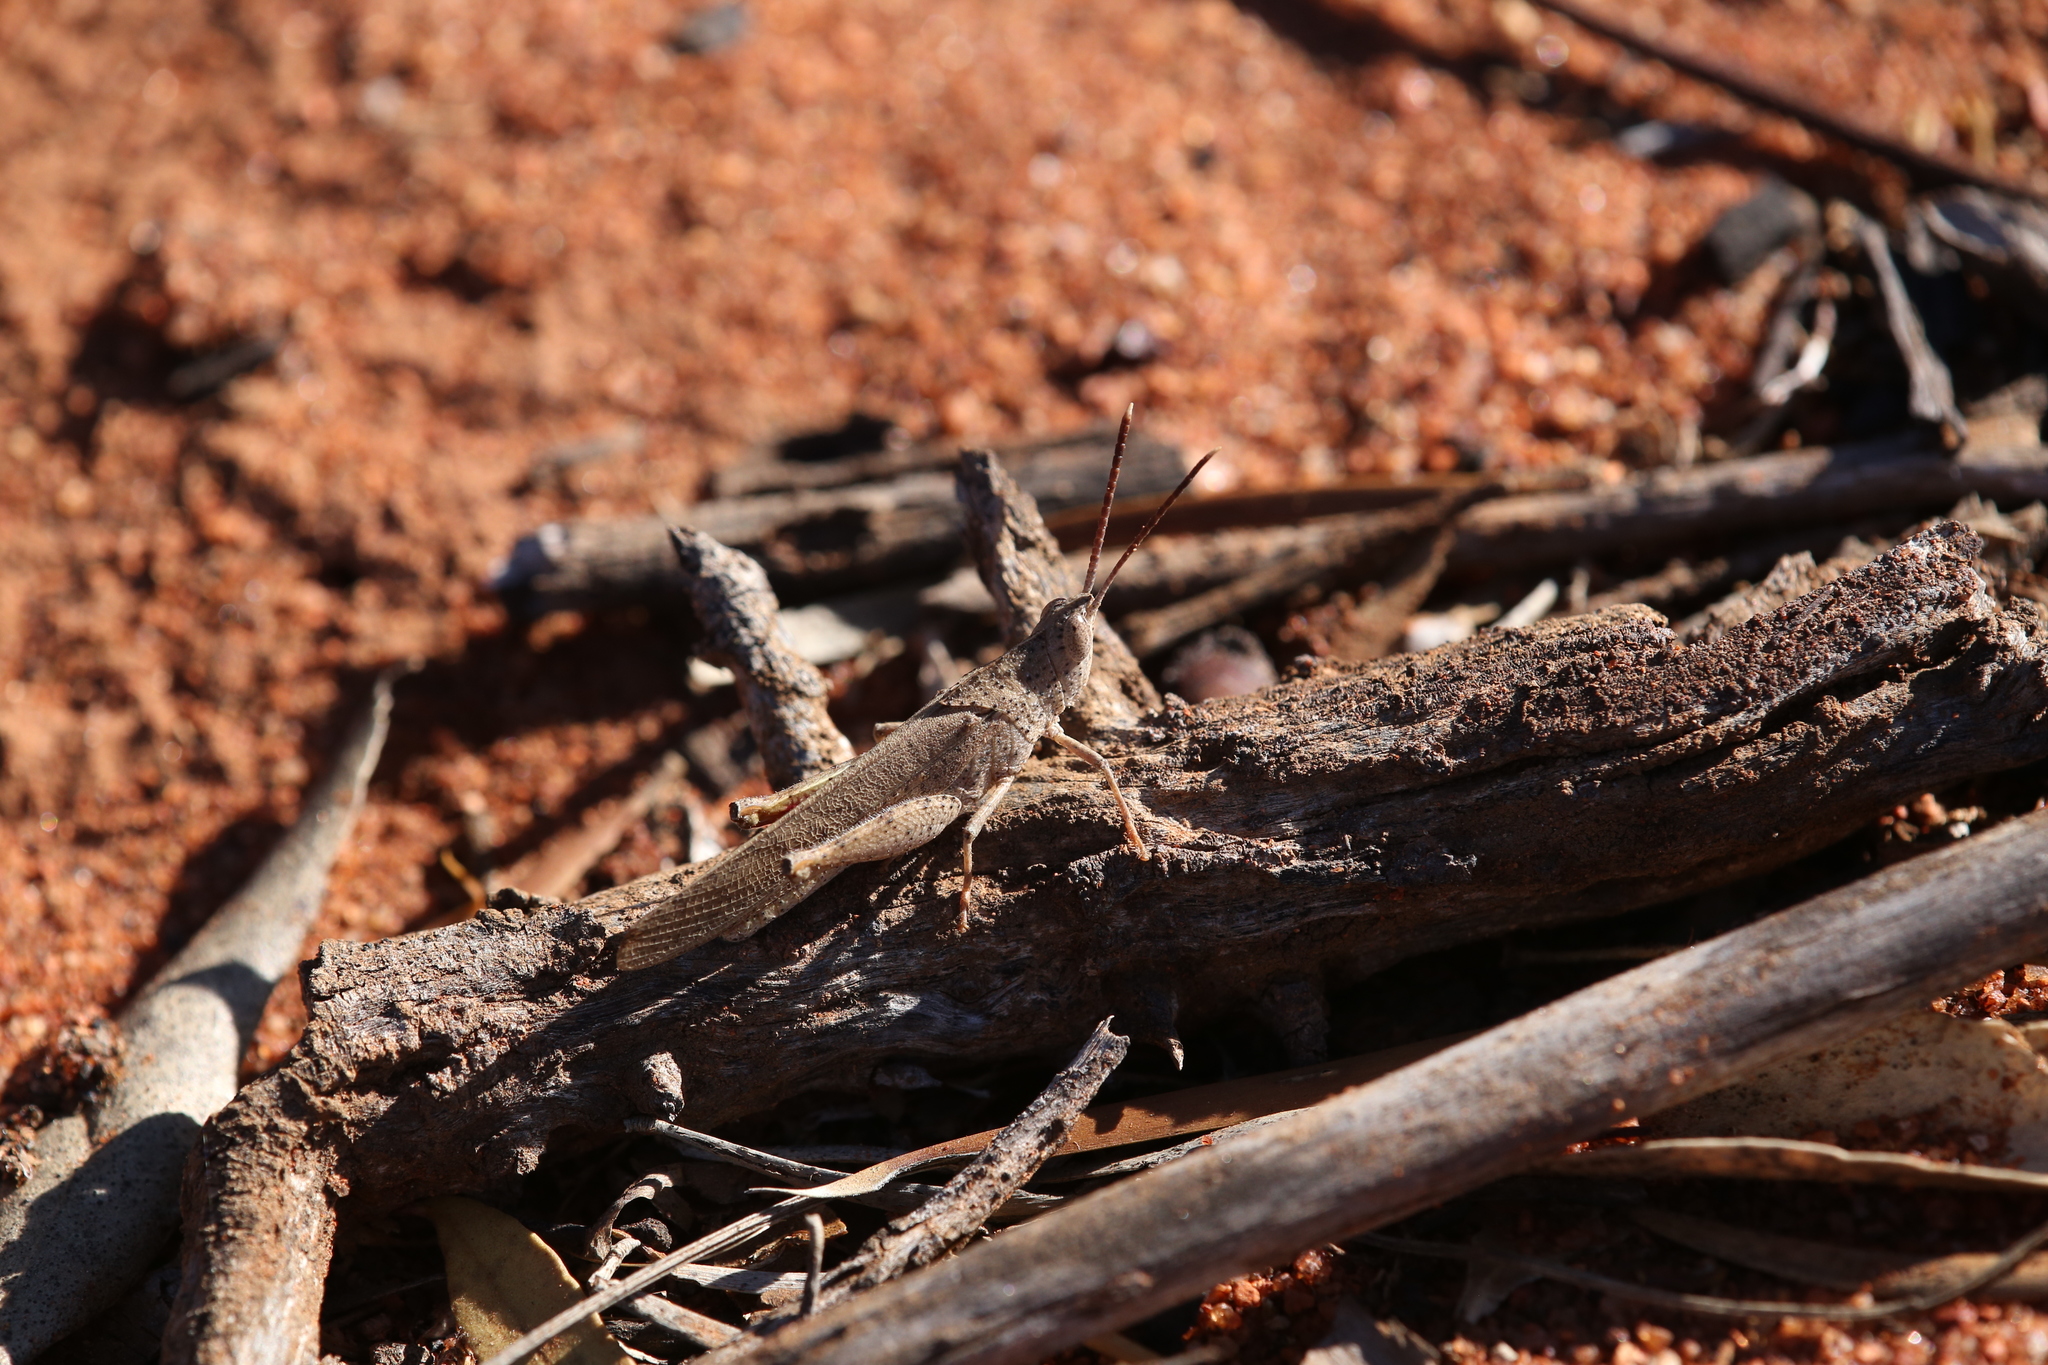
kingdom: Animalia
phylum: Arthropoda
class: Insecta
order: Orthoptera
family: Acrididae
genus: Goniaea
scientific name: Goniaea vocans
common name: Slender gumleaf grasshopper
